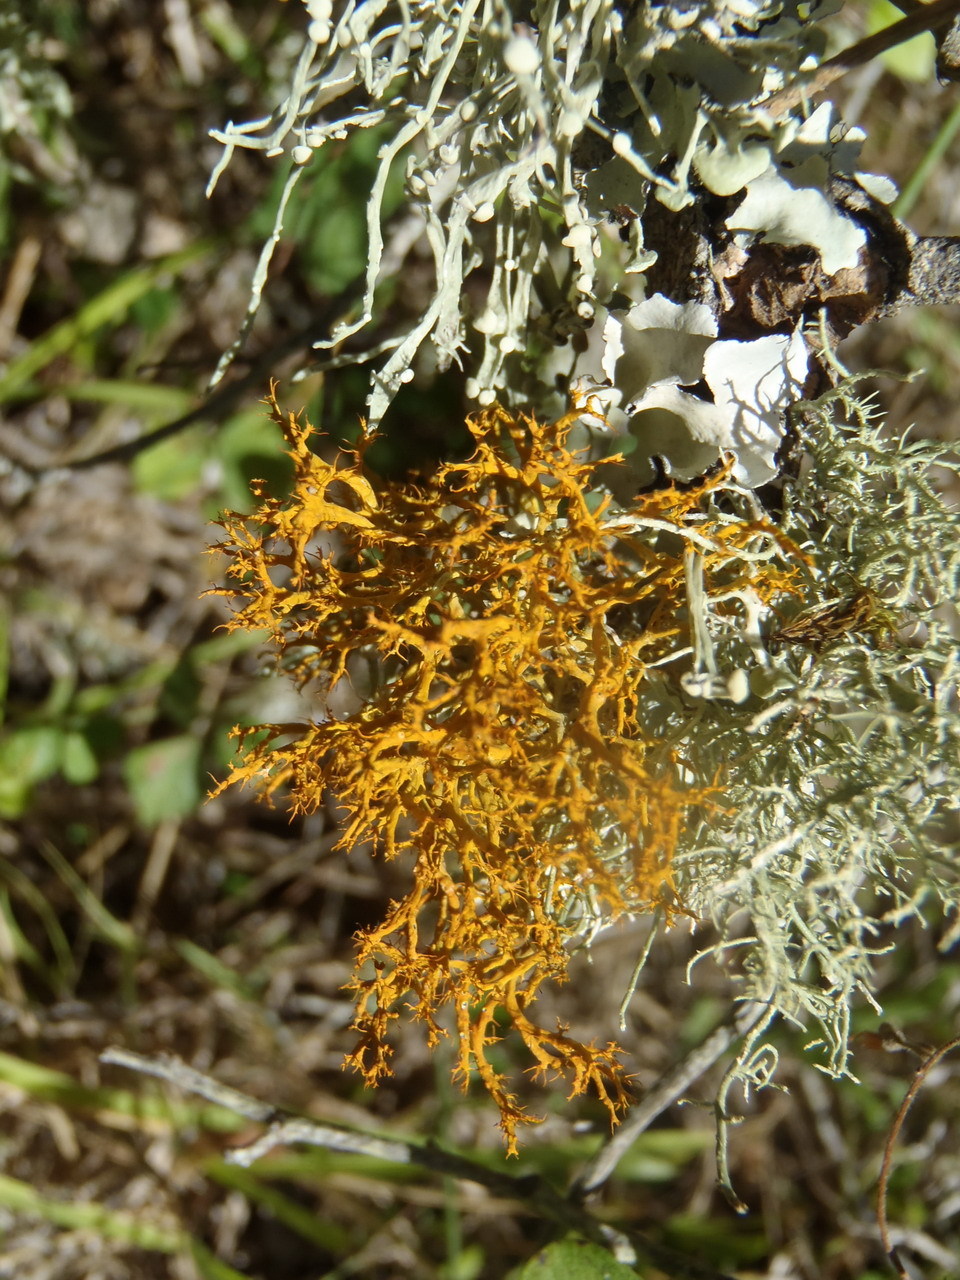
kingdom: Fungi
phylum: Ascomycota
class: Lecanoromycetes
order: Teloschistales
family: Teloschistaceae
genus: Teloschistes
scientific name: Teloschistes inflatus
